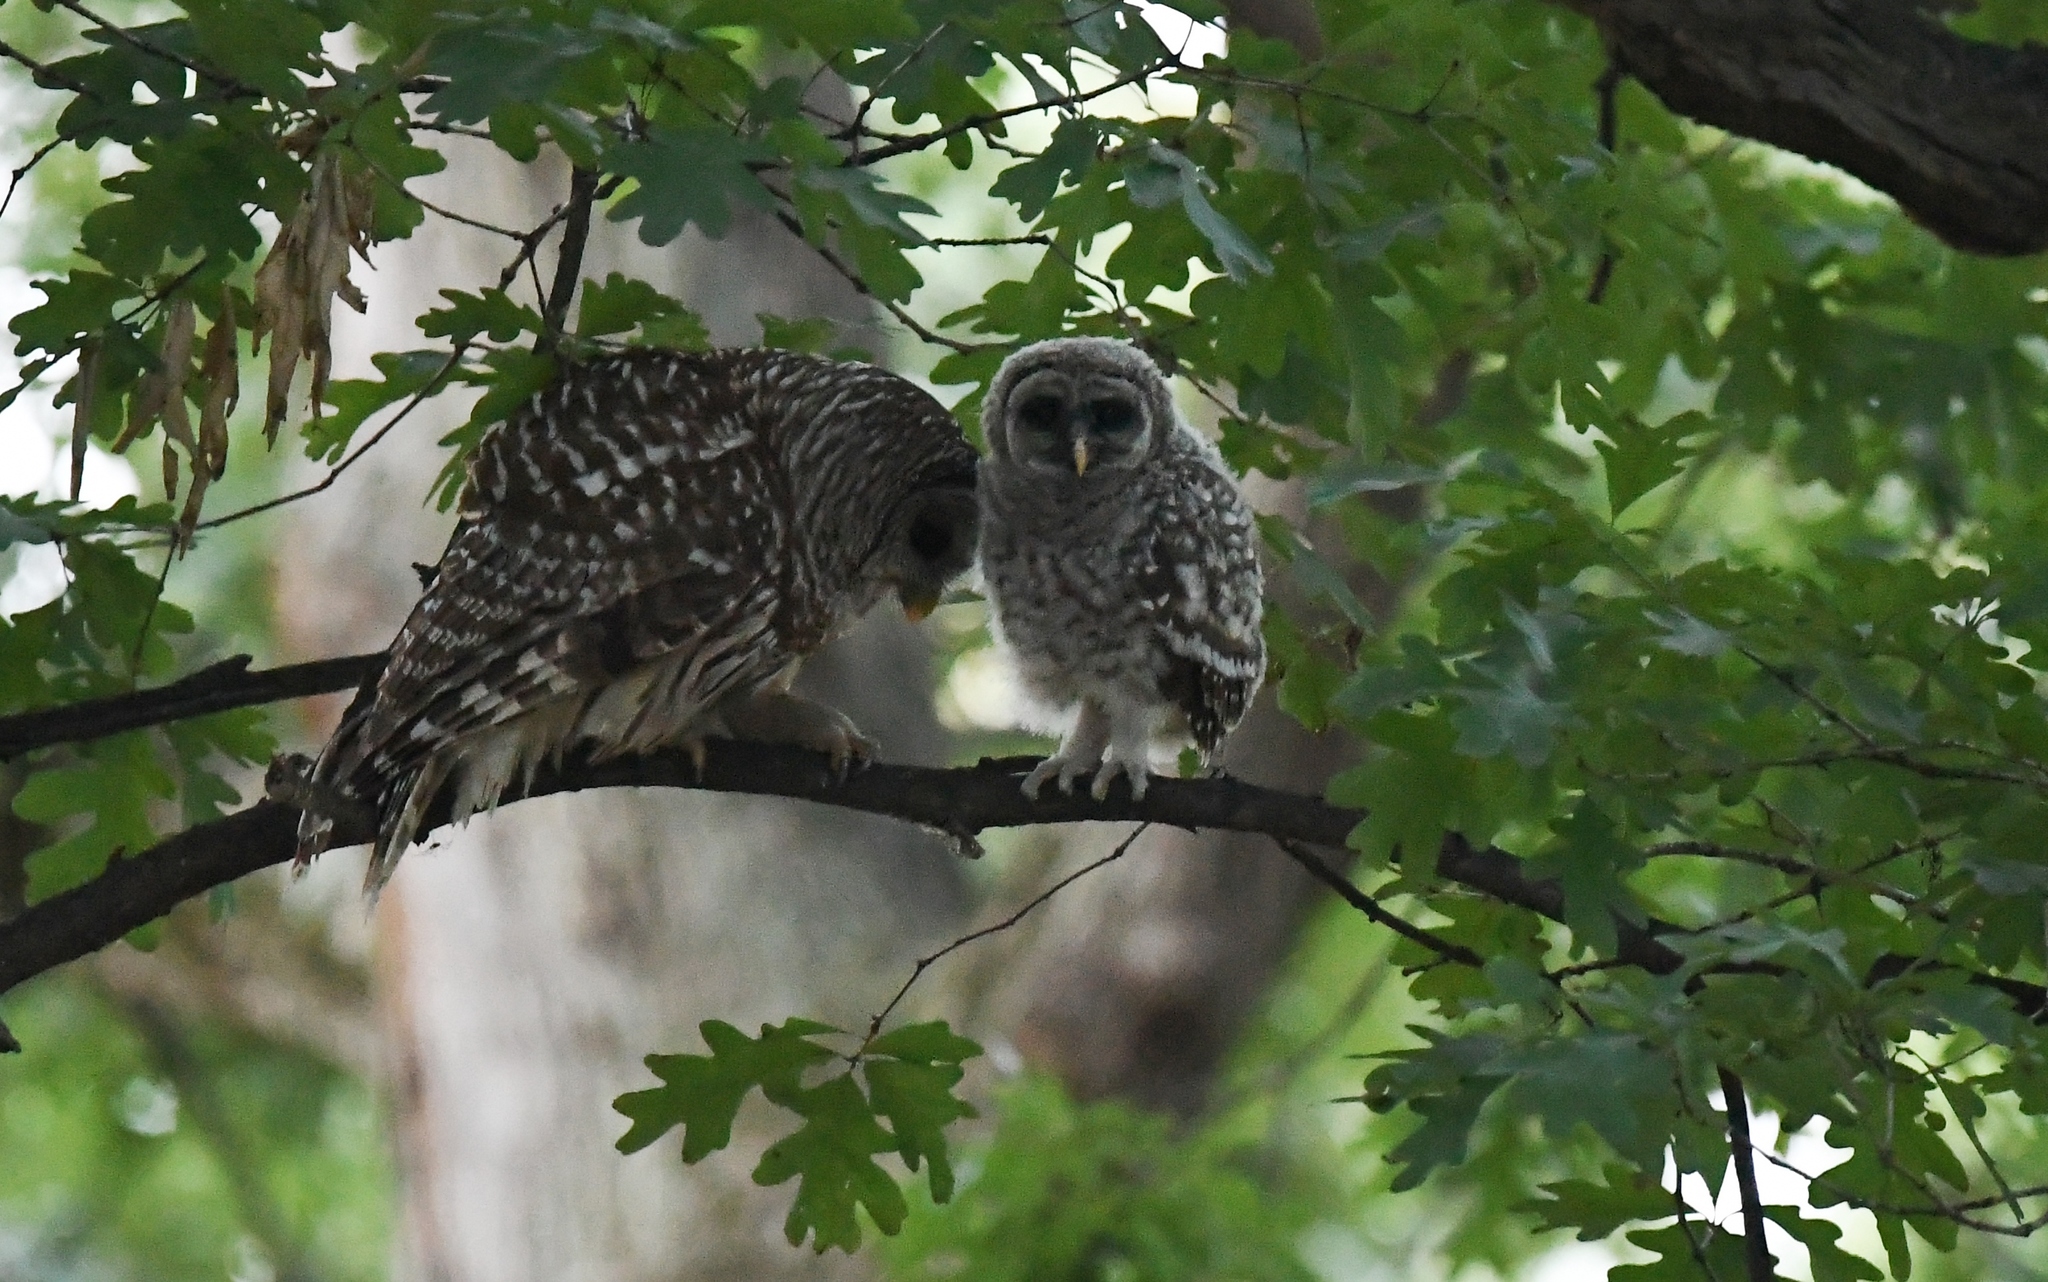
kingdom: Animalia
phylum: Chordata
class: Aves
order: Strigiformes
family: Strigidae
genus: Strix
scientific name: Strix varia
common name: Barred owl
